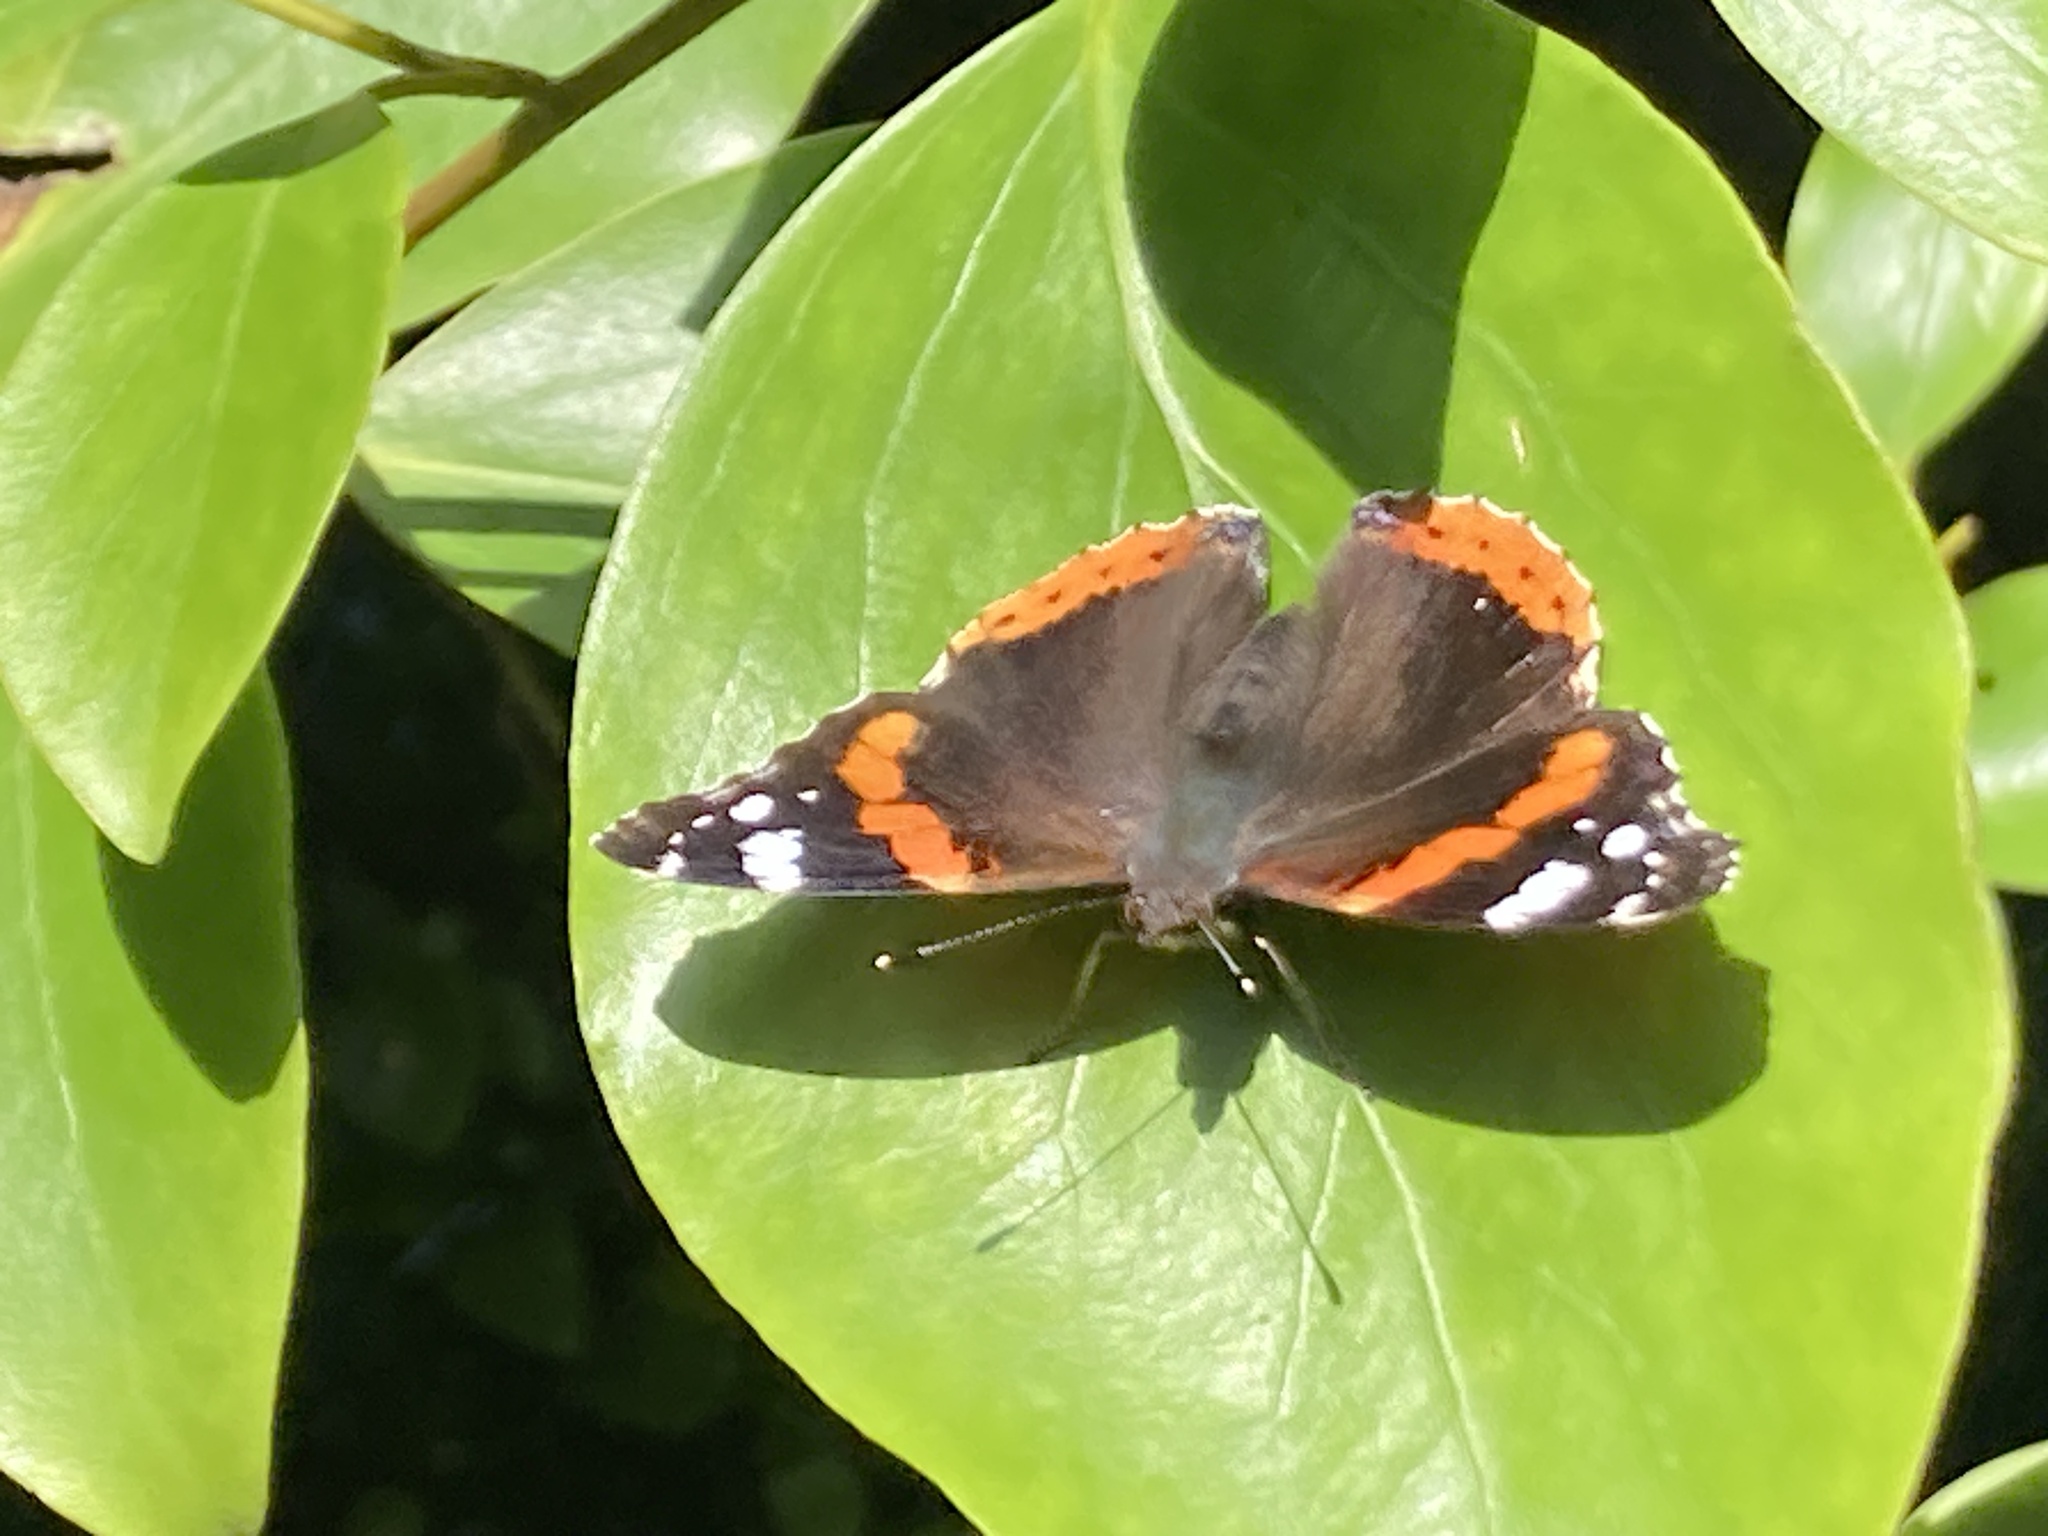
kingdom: Animalia
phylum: Arthropoda
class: Insecta
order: Lepidoptera
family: Nymphalidae
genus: Vanessa
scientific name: Vanessa atalanta
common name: Red admiral
